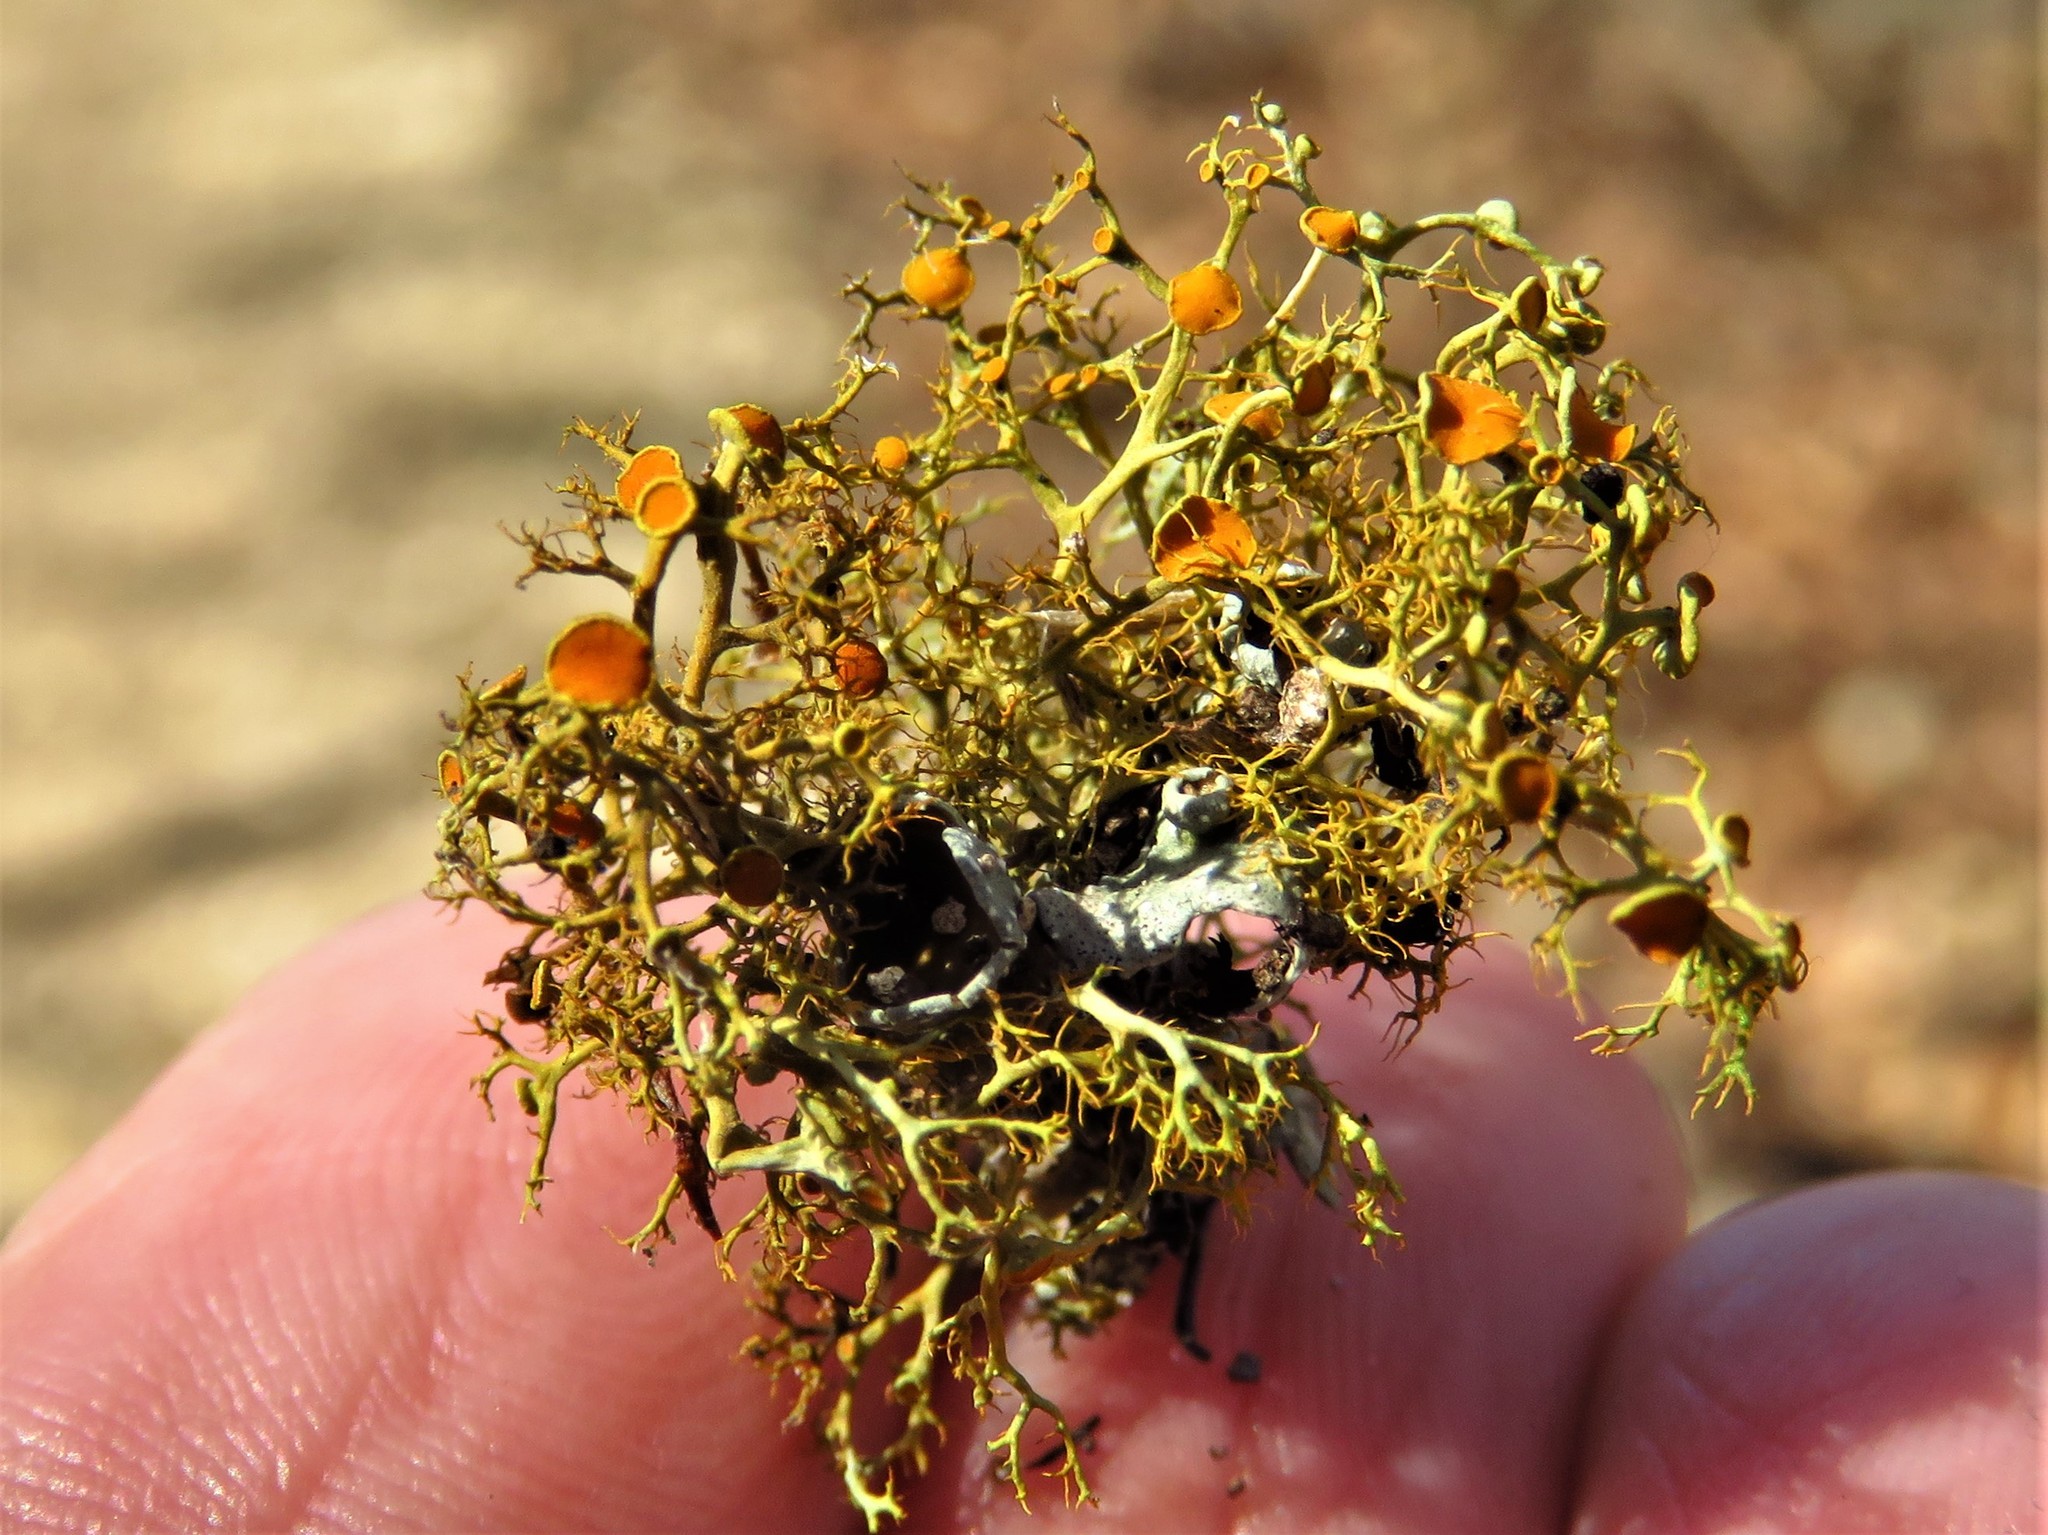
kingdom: Fungi
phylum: Ascomycota
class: Lecanoromycetes
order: Teloschistales
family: Teloschistaceae
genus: Teloschistes
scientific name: Teloschistes exilis
